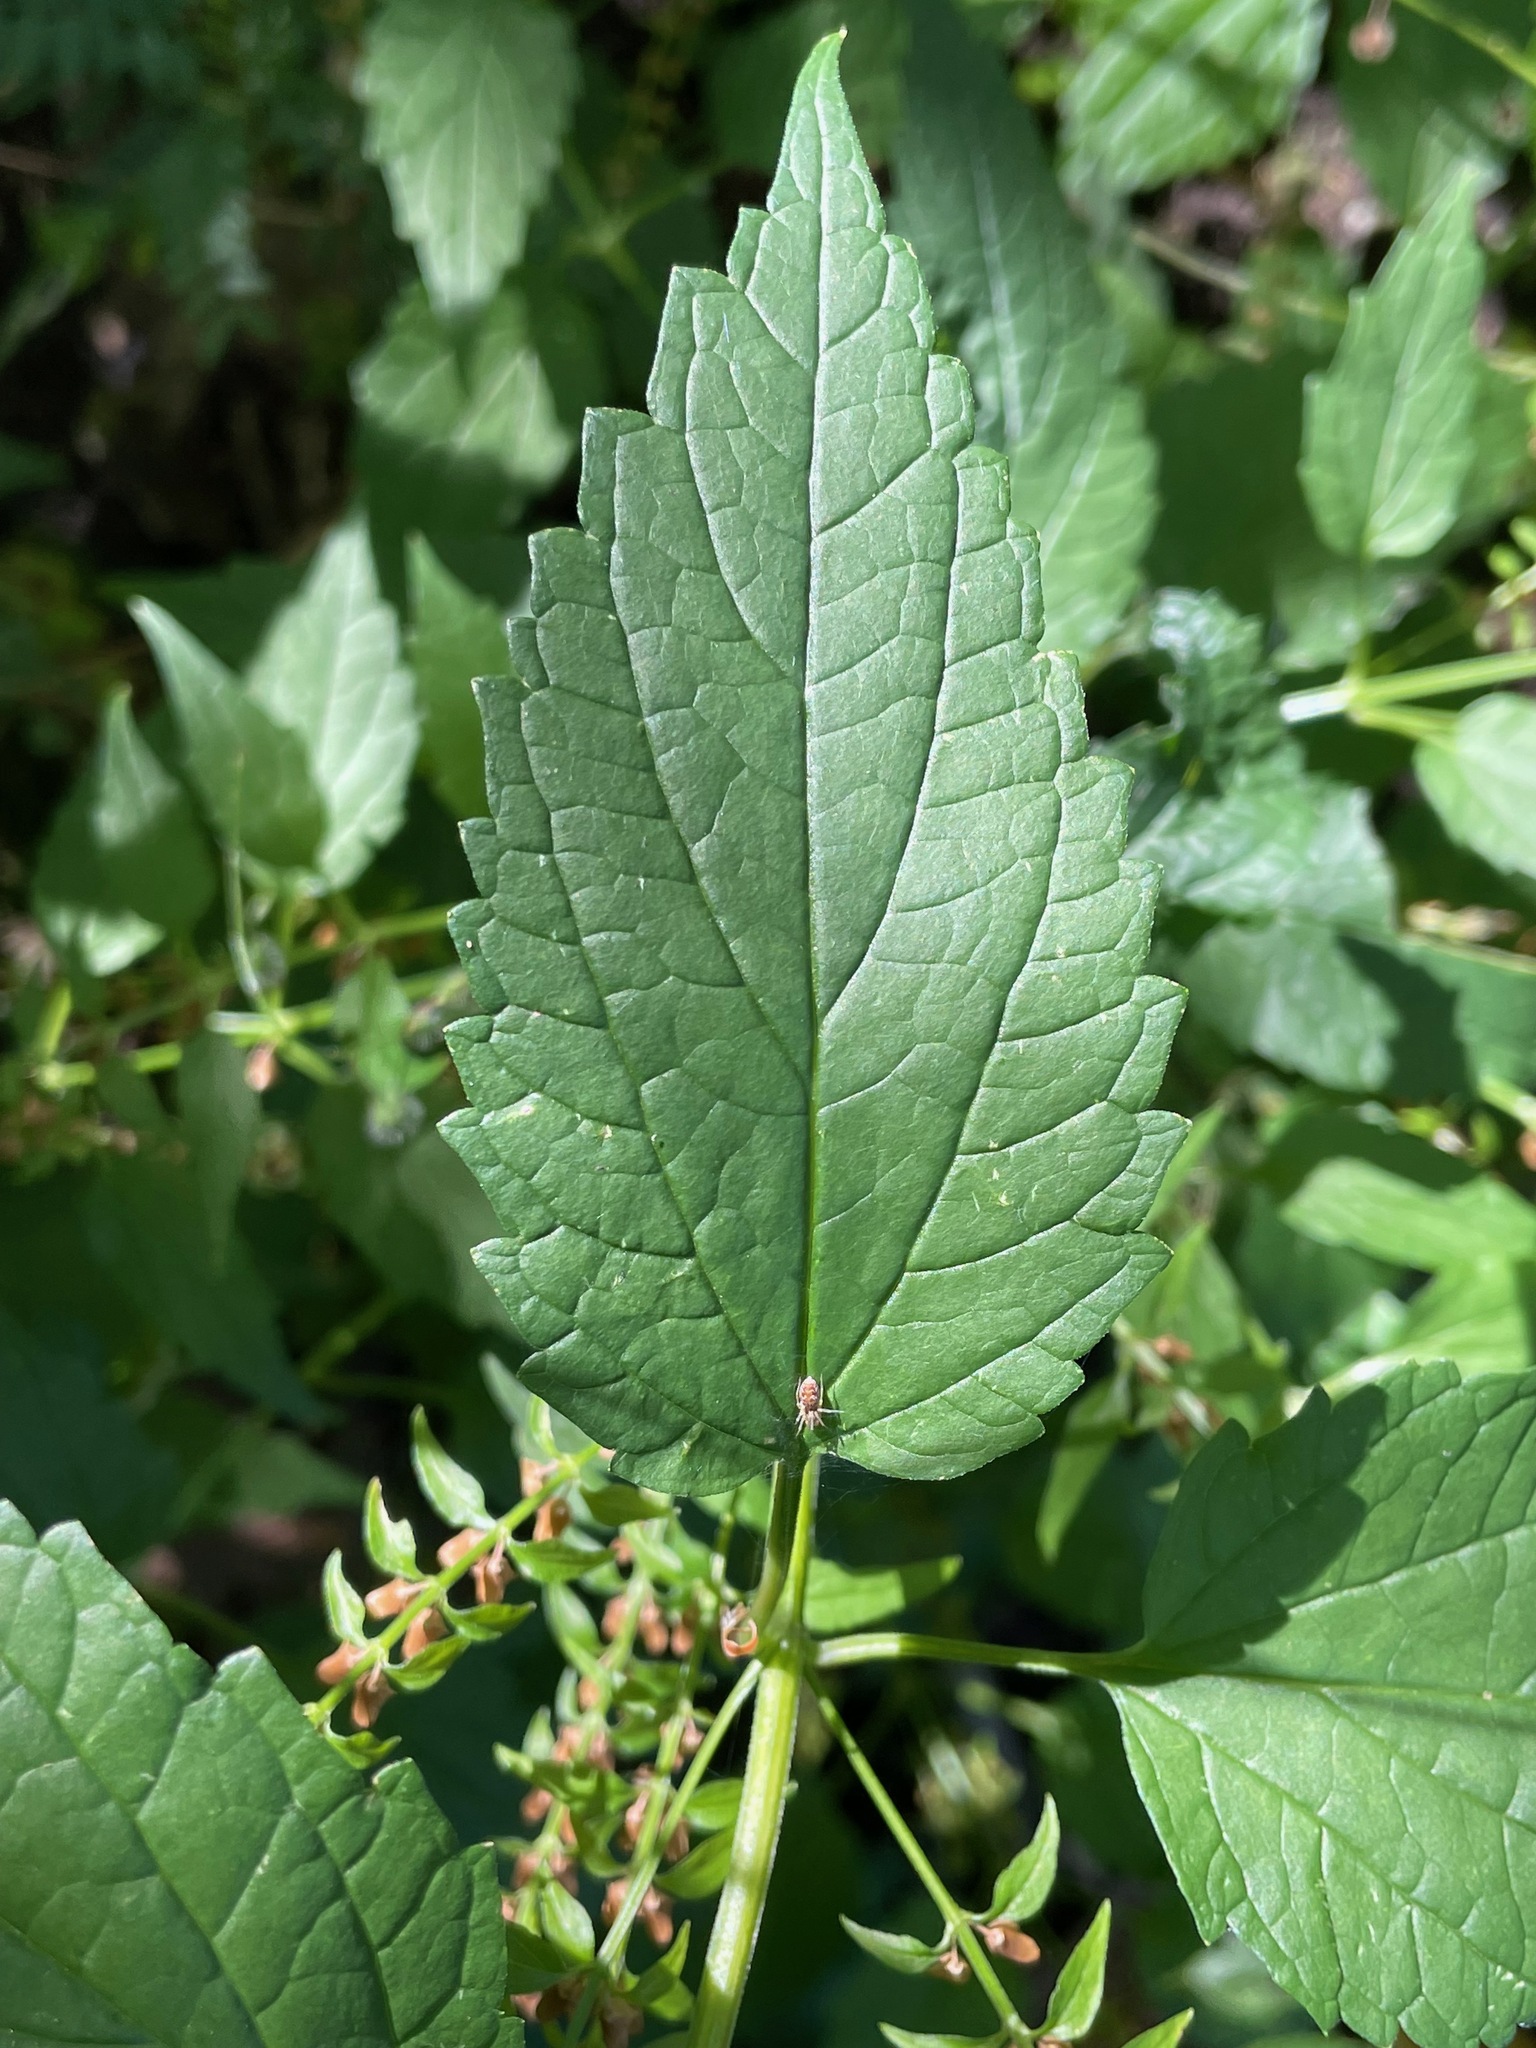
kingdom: Plantae
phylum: Tracheophyta
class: Magnoliopsida
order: Lamiales
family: Lamiaceae
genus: Scutellaria
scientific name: Scutellaria lateriflora
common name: Blue skullcap
